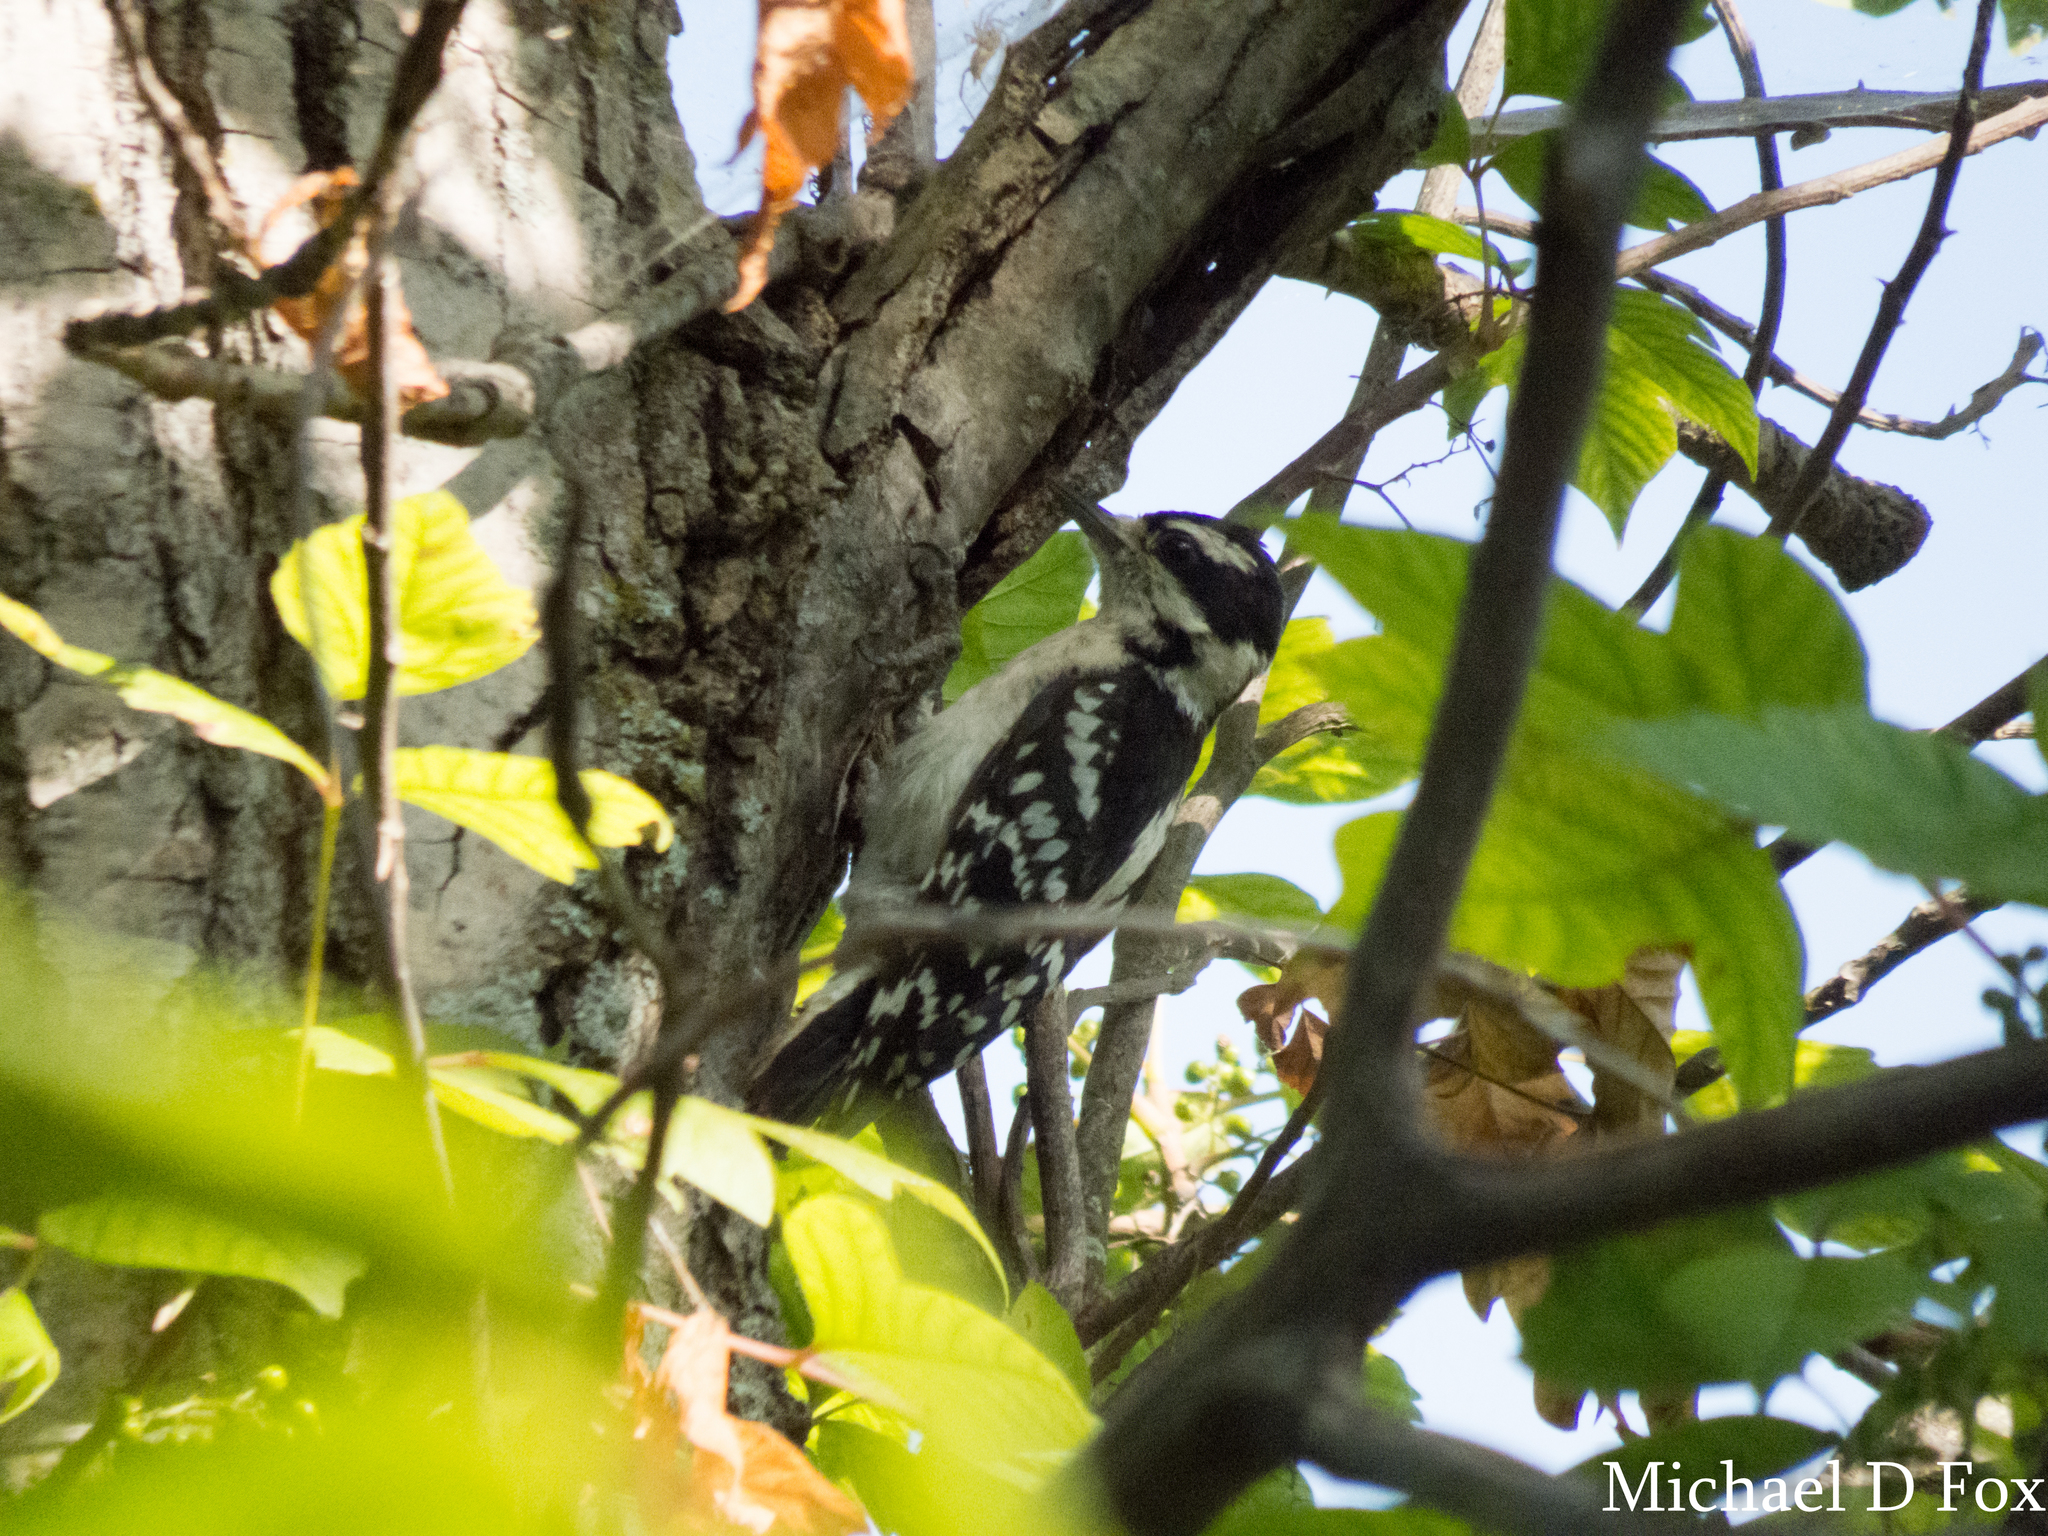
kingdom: Animalia
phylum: Chordata
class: Aves
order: Piciformes
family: Picidae
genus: Dryobates
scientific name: Dryobates pubescens
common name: Downy woodpecker
